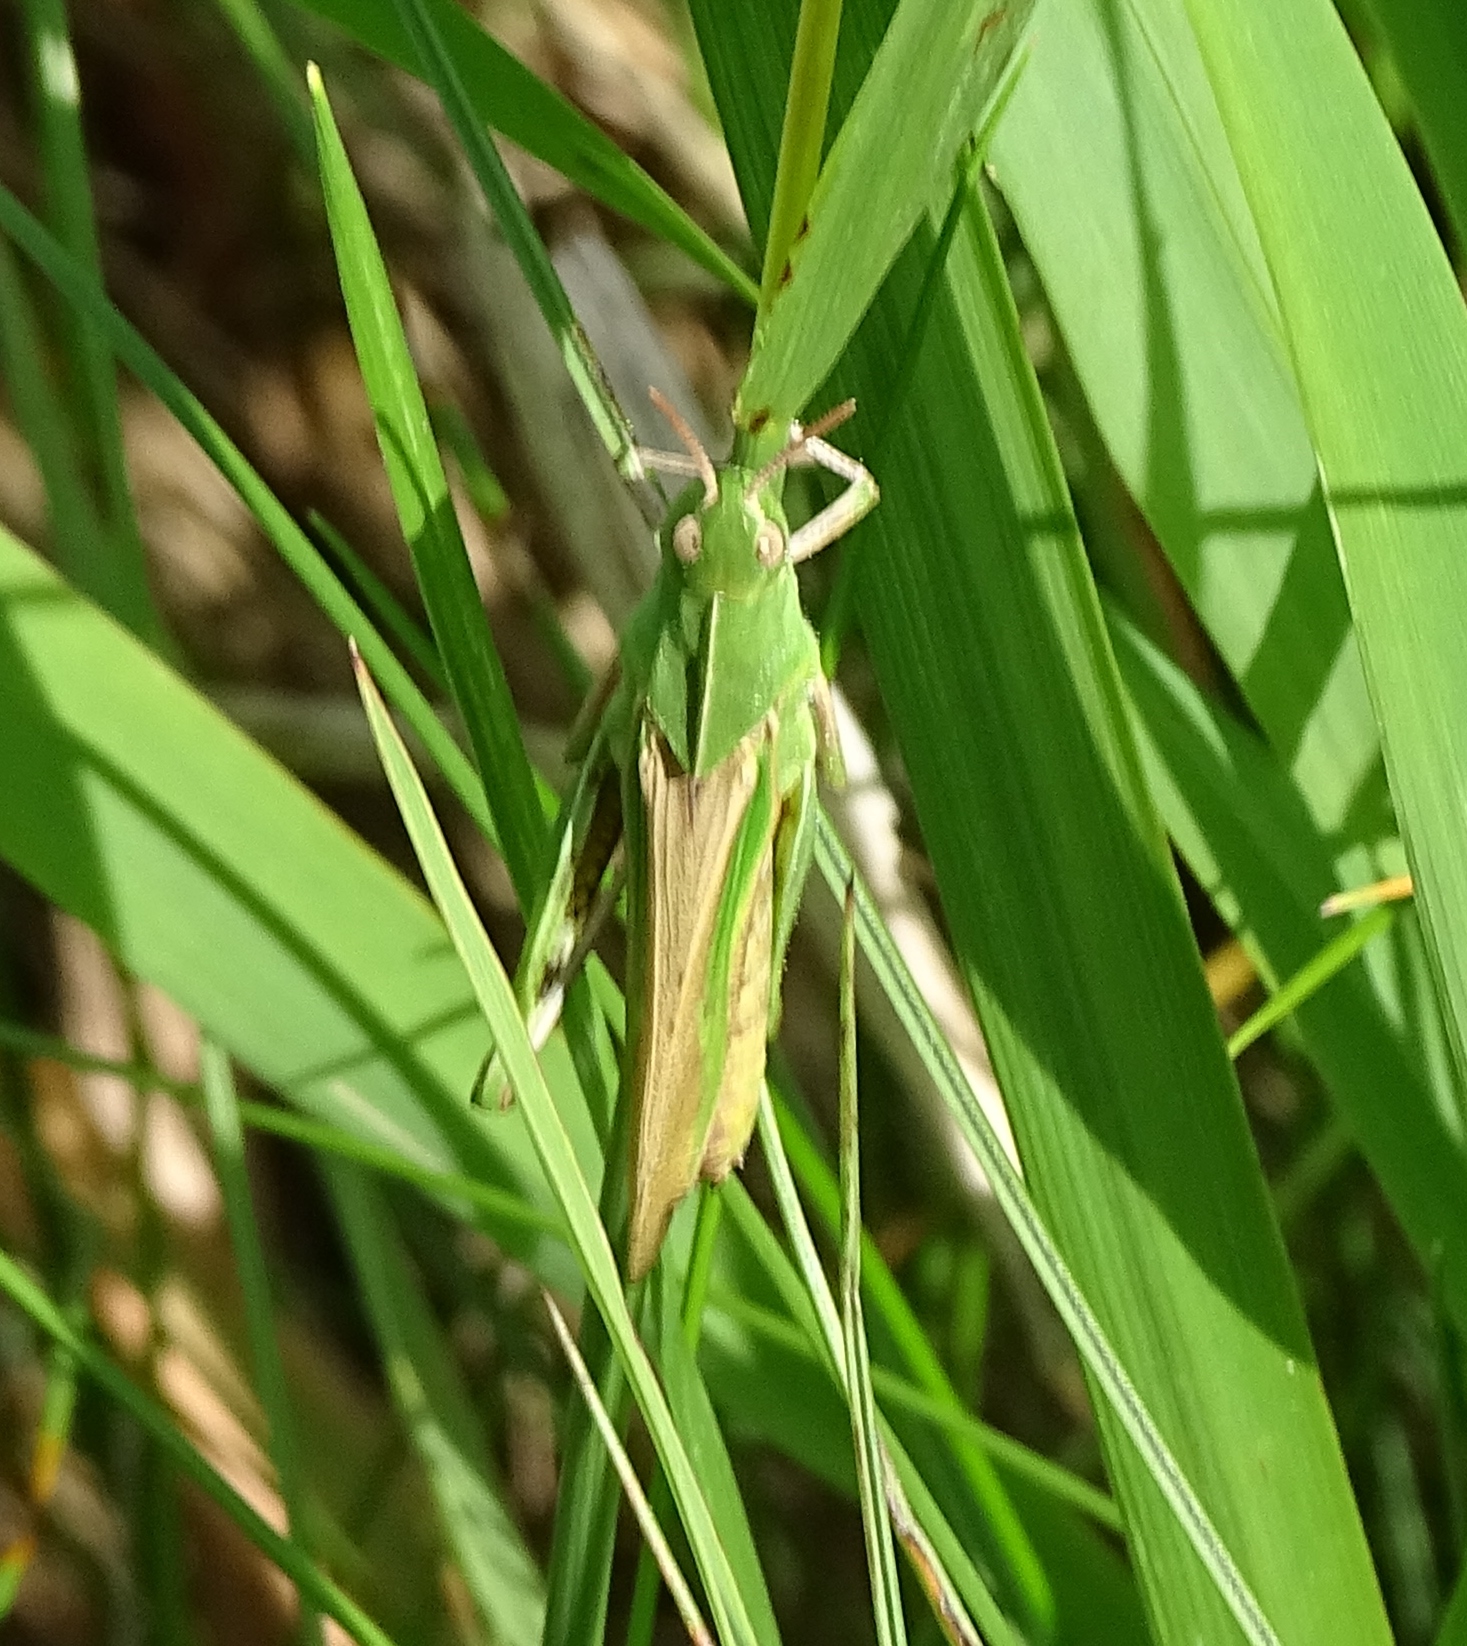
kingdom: Animalia
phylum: Arthropoda
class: Insecta
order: Orthoptera
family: Acrididae
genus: Chortophaga
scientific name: Chortophaga viridifasciata
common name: Green-striped grasshopper
